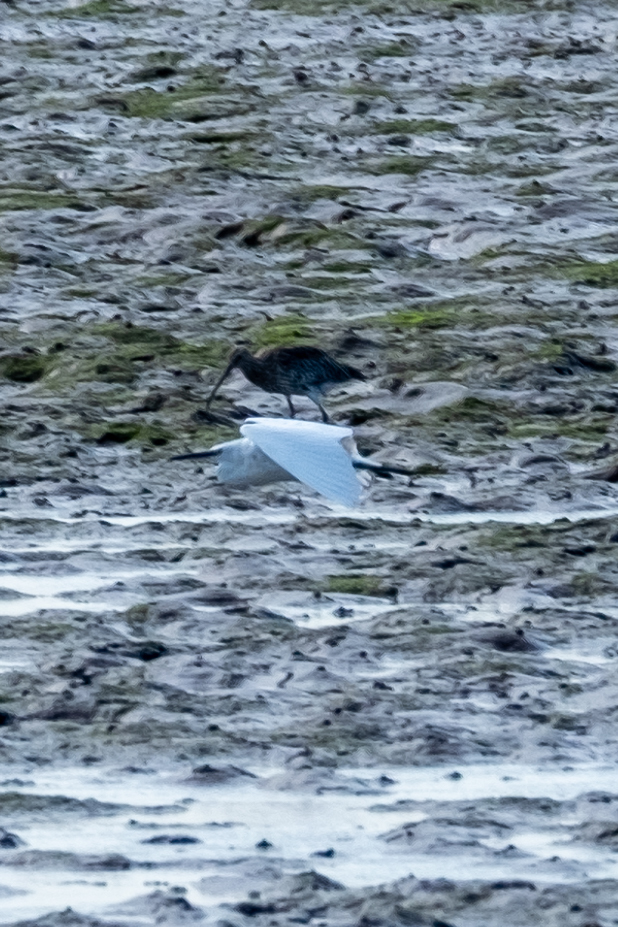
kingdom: Animalia
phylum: Chordata
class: Aves
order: Pelecaniformes
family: Ardeidae
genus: Egretta
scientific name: Egretta garzetta
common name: Little egret
